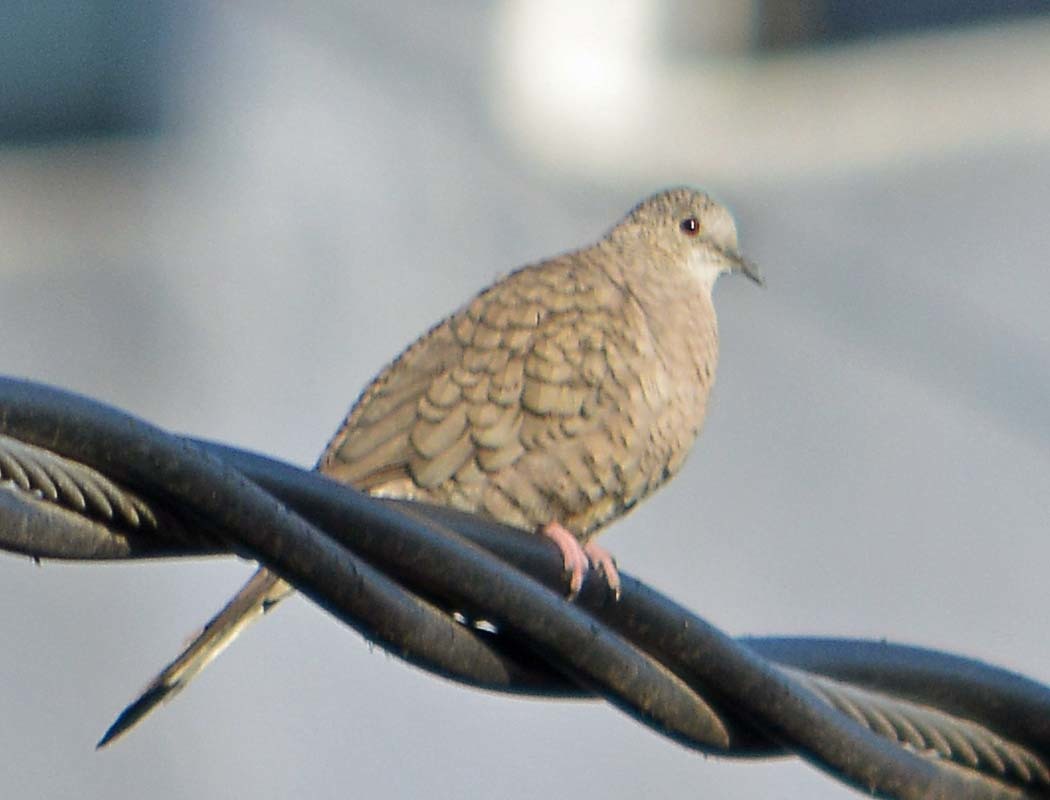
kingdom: Animalia
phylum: Chordata
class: Aves
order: Columbiformes
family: Columbidae
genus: Columbina
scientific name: Columbina inca
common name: Inca dove
